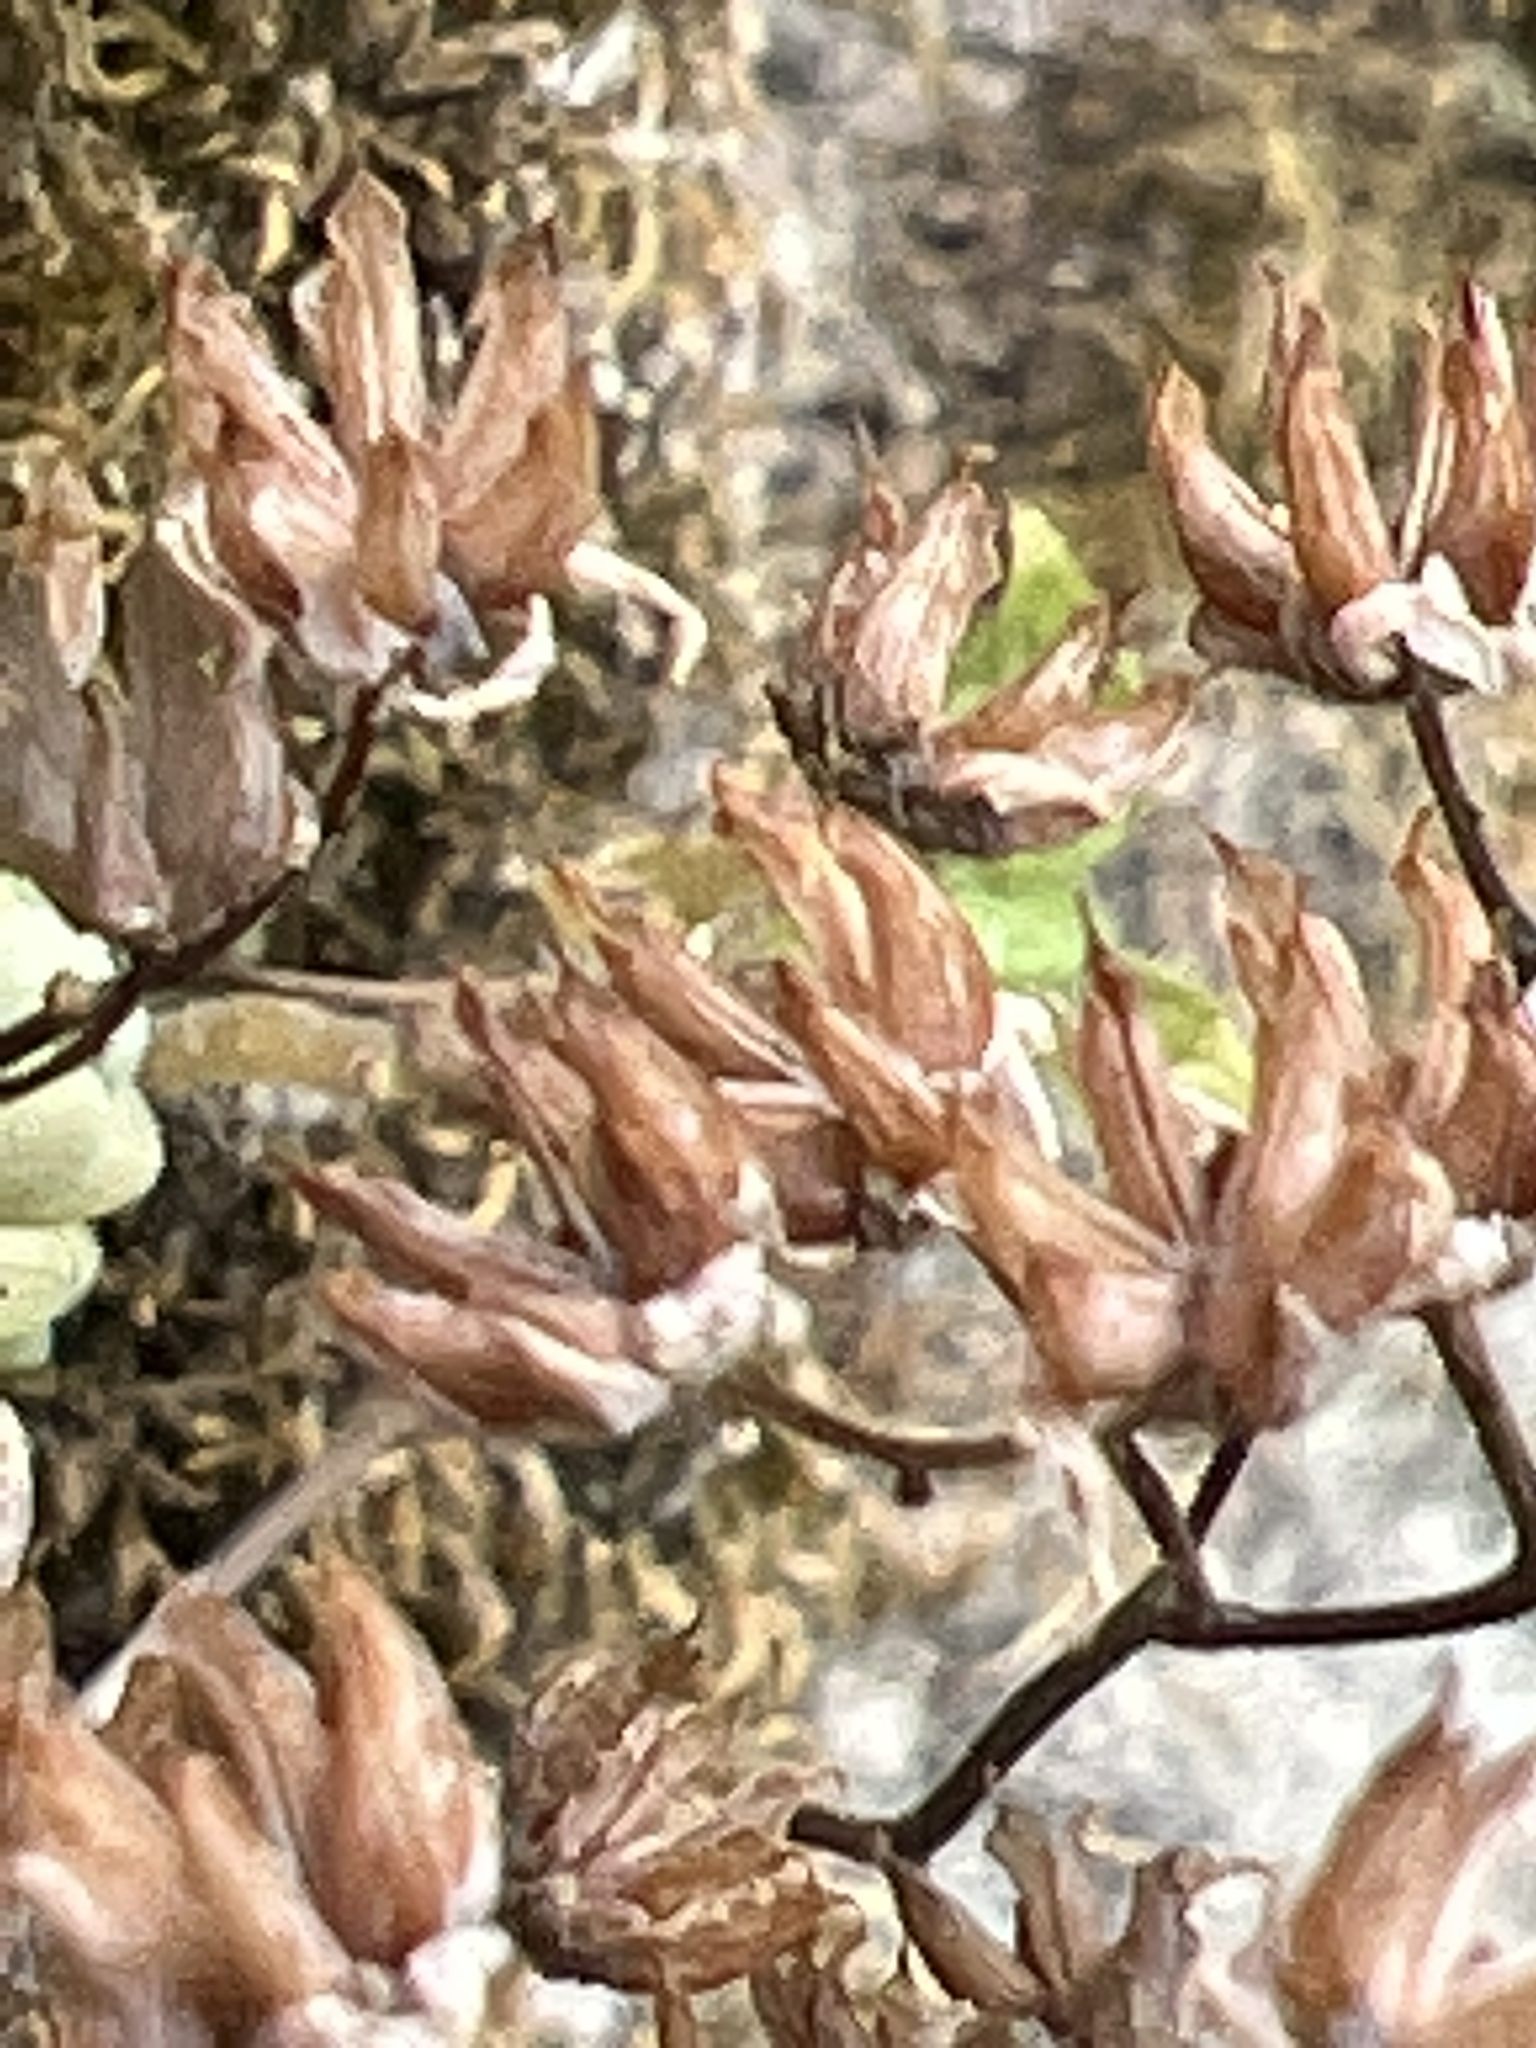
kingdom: Plantae
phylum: Tracheophyta
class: Magnoliopsida
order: Saxifragales
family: Crassulaceae
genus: Sedum
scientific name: Sedum dasyphyllum
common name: Thick-leaf stonecrop
